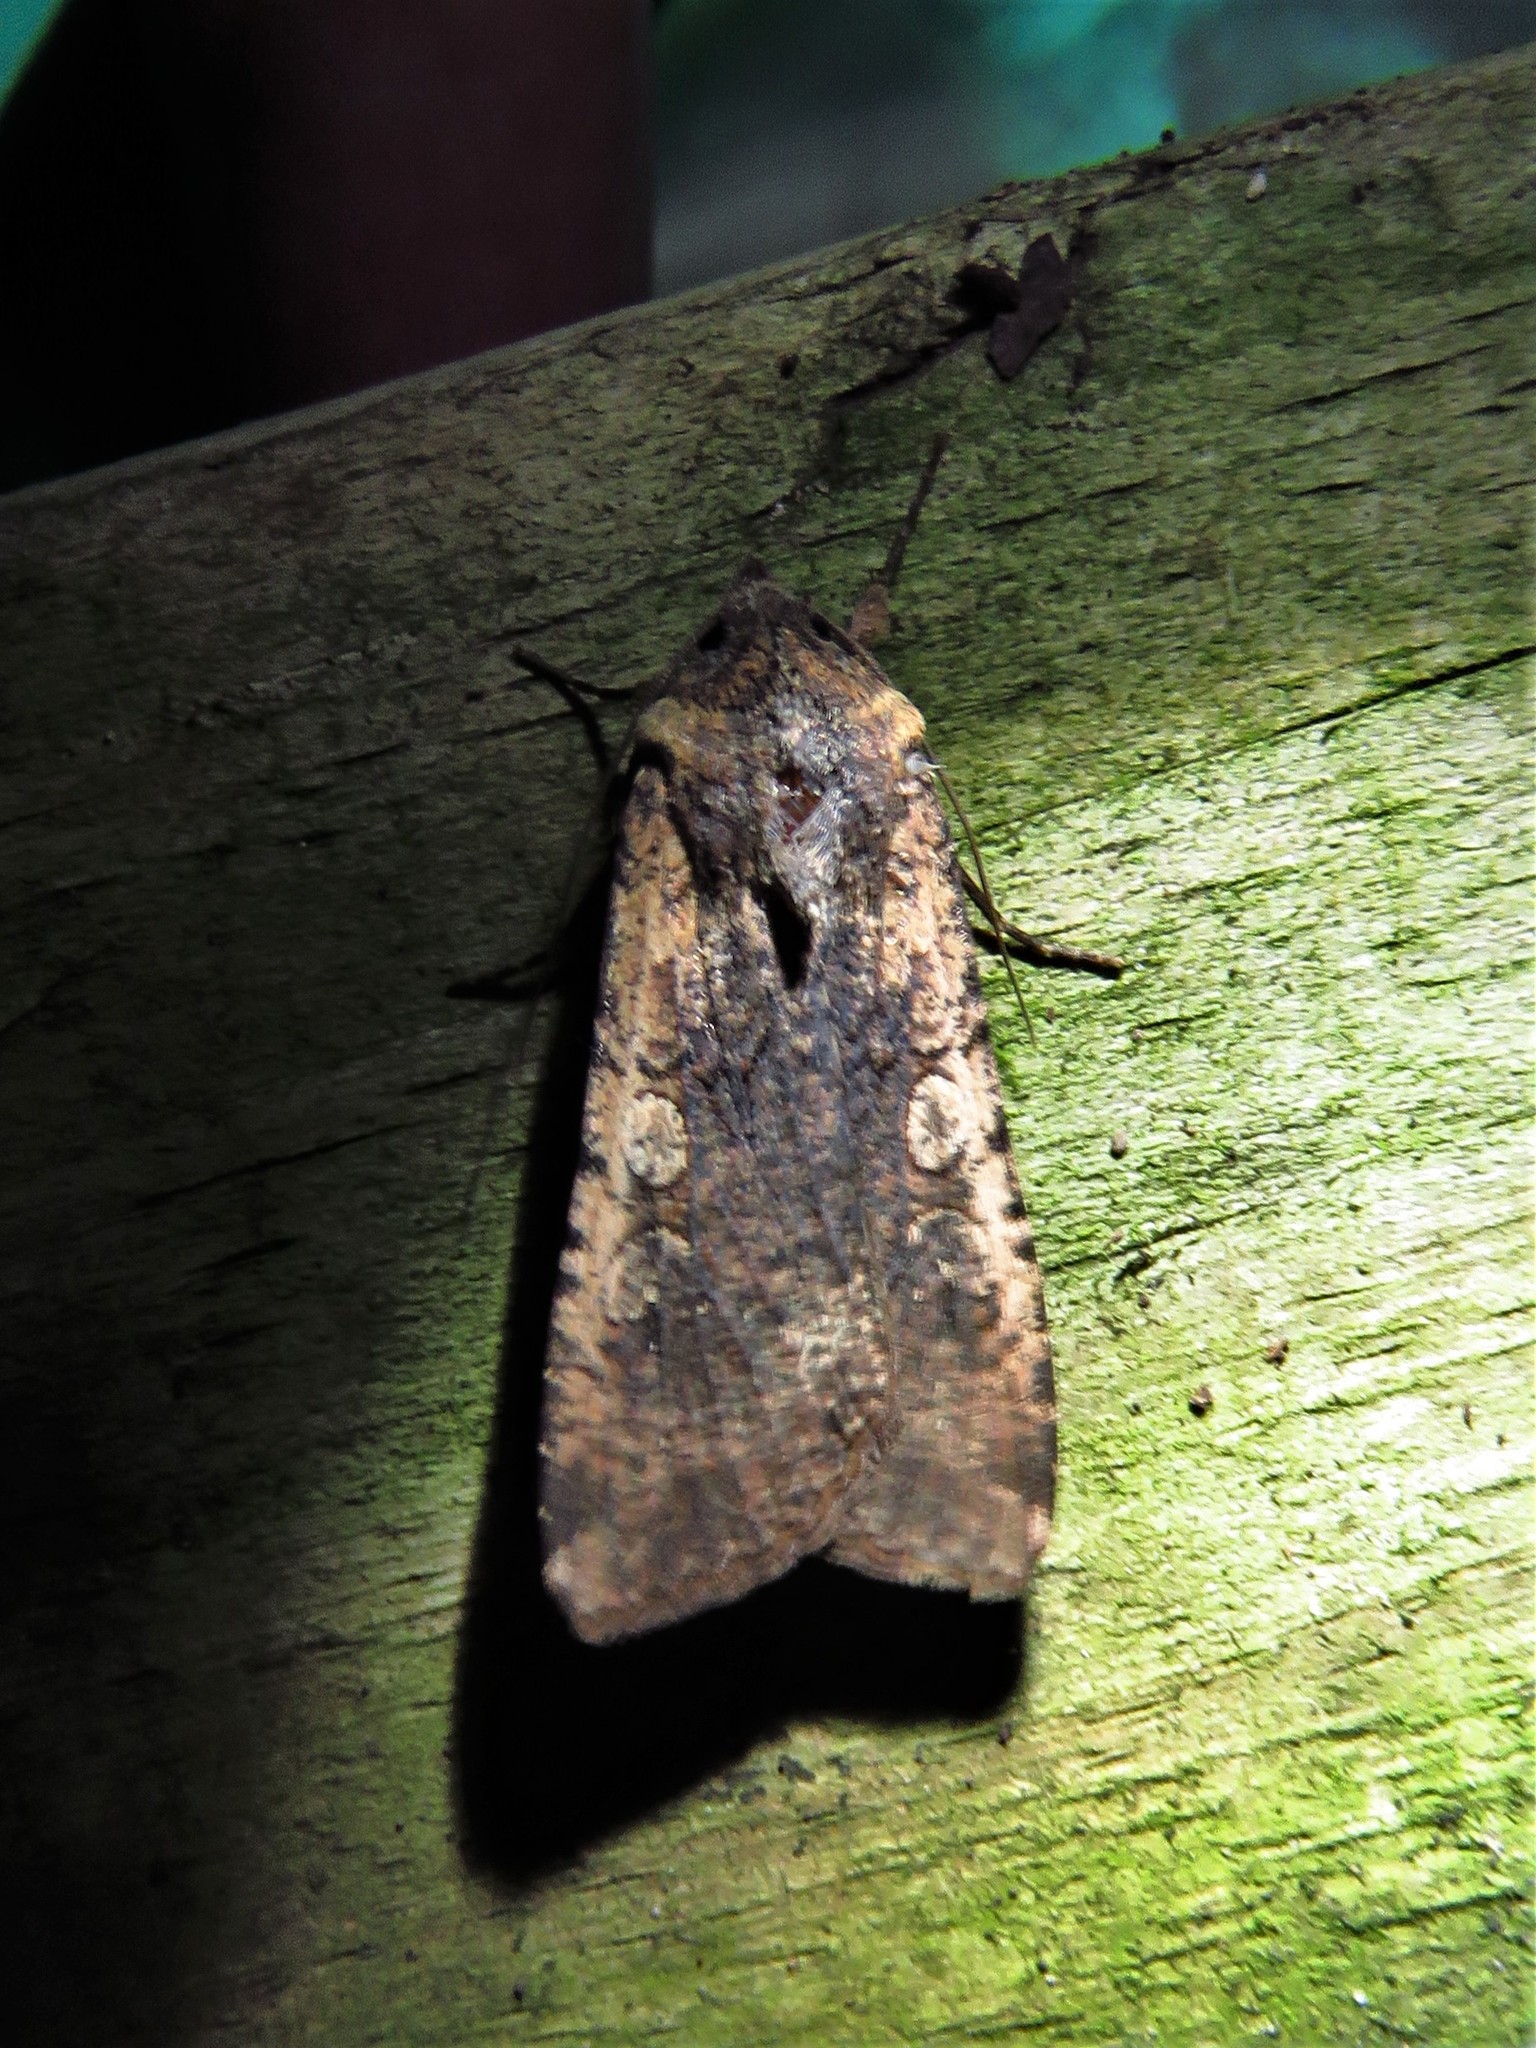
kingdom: Animalia
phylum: Arthropoda
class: Insecta
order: Lepidoptera
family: Noctuidae
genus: Peridroma
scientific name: Peridroma saucia
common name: Pearly underwing
